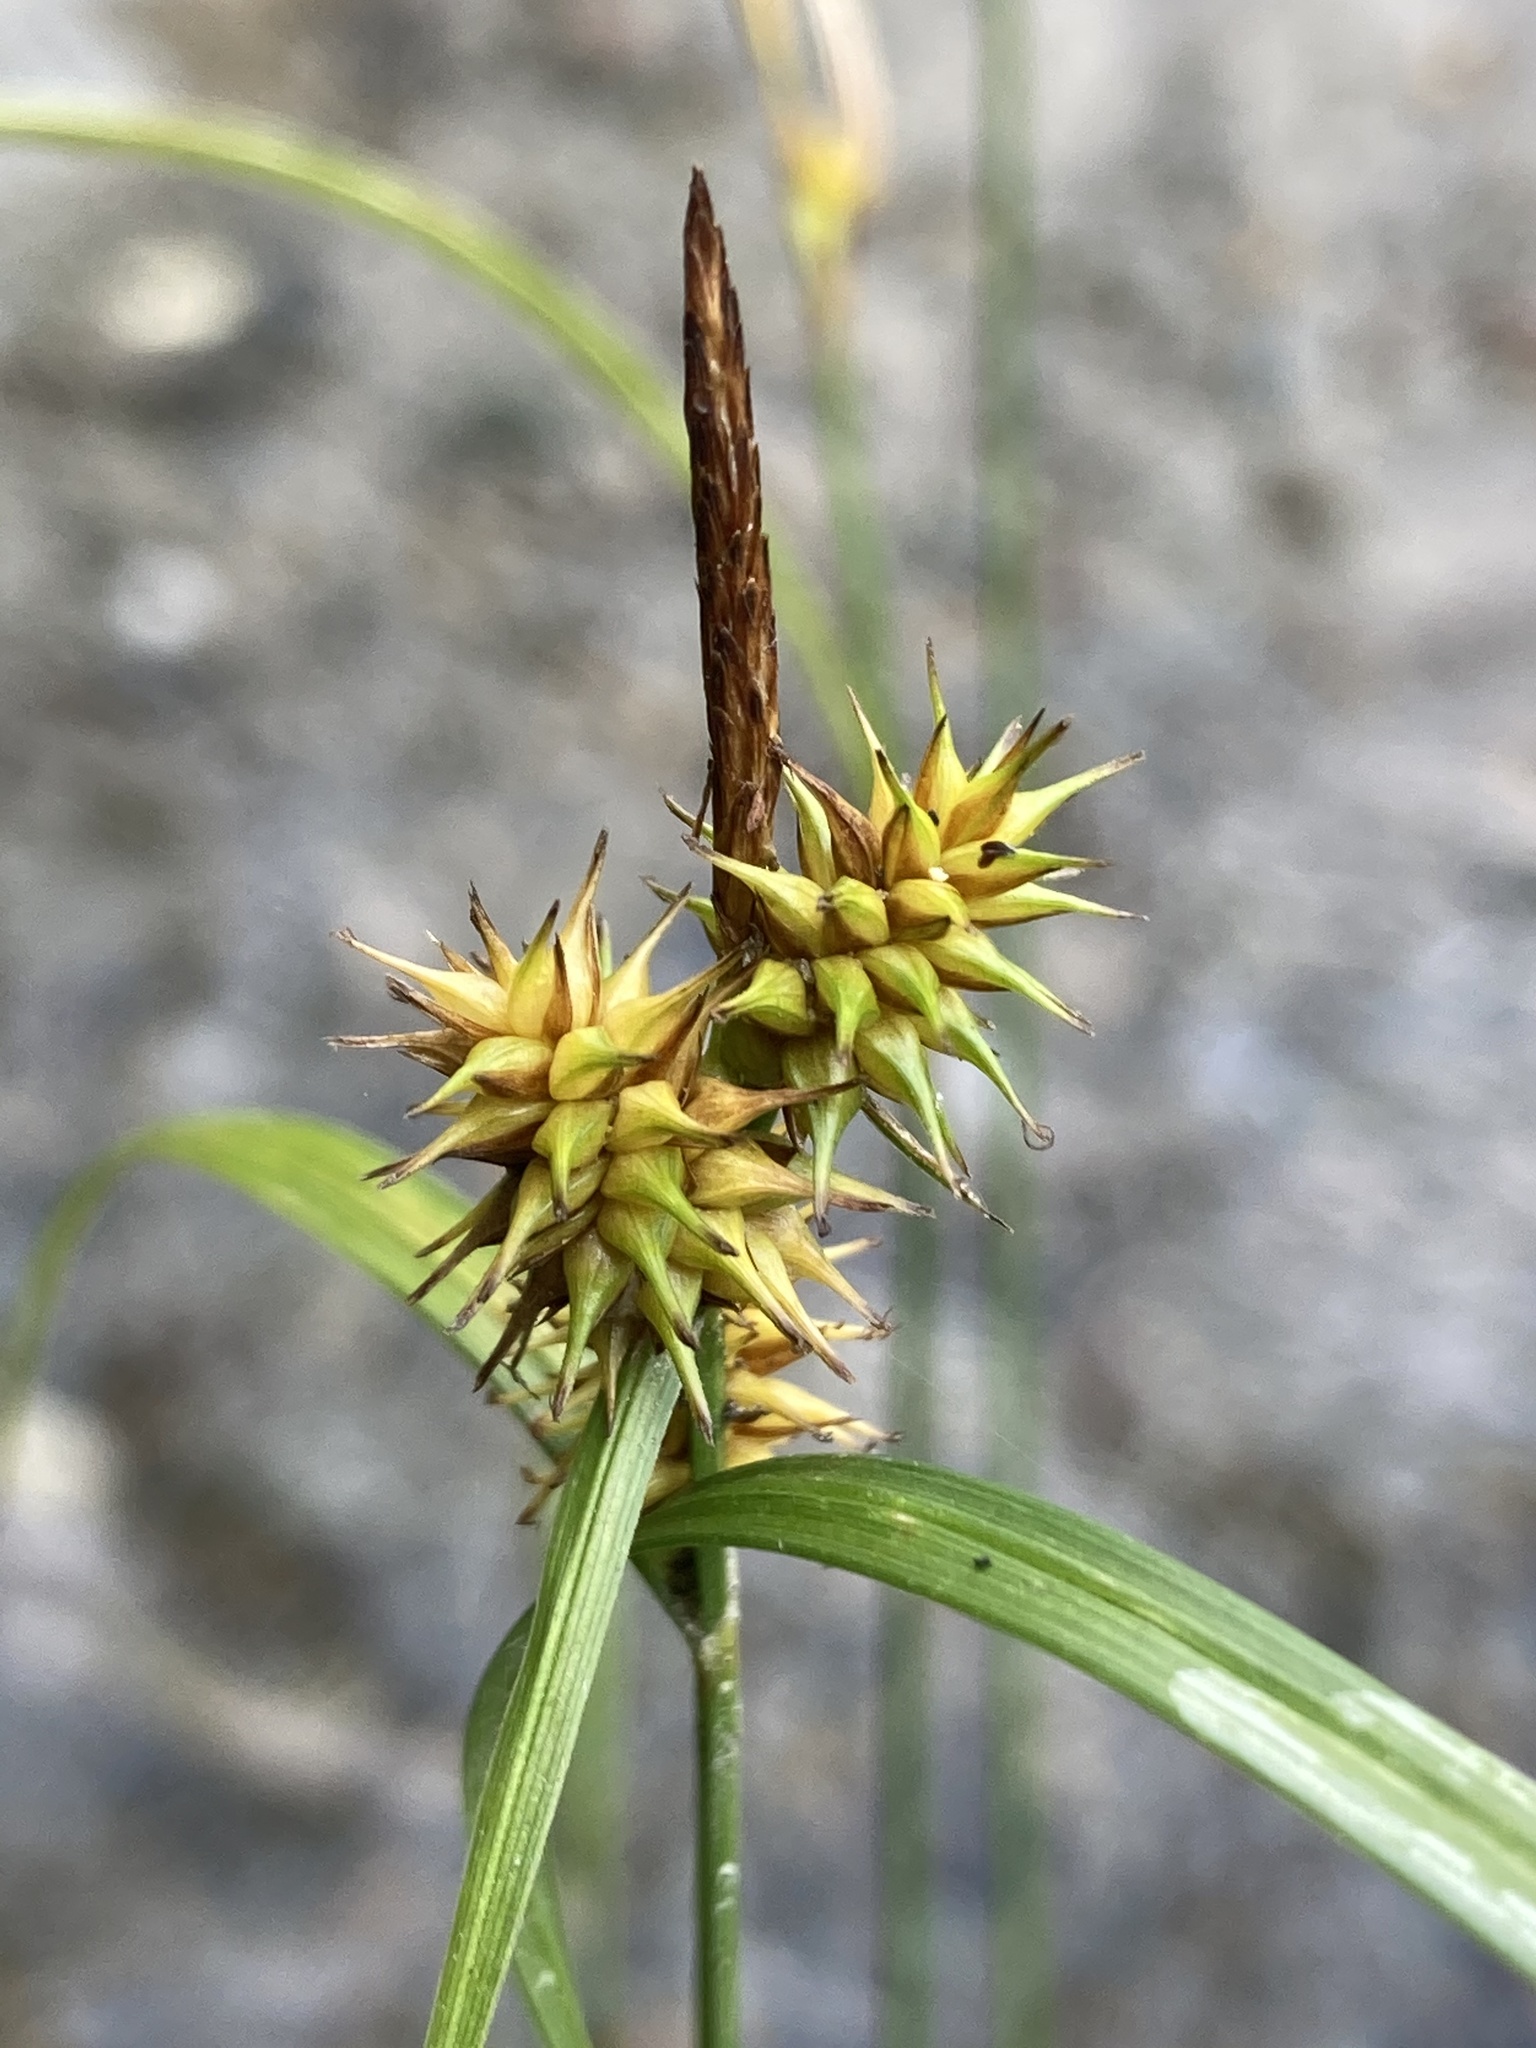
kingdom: Plantae
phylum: Tracheophyta
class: Liliopsida
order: Poales
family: Cyperaceae
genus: Carex
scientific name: Carex flava
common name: Large yellow-sedge
